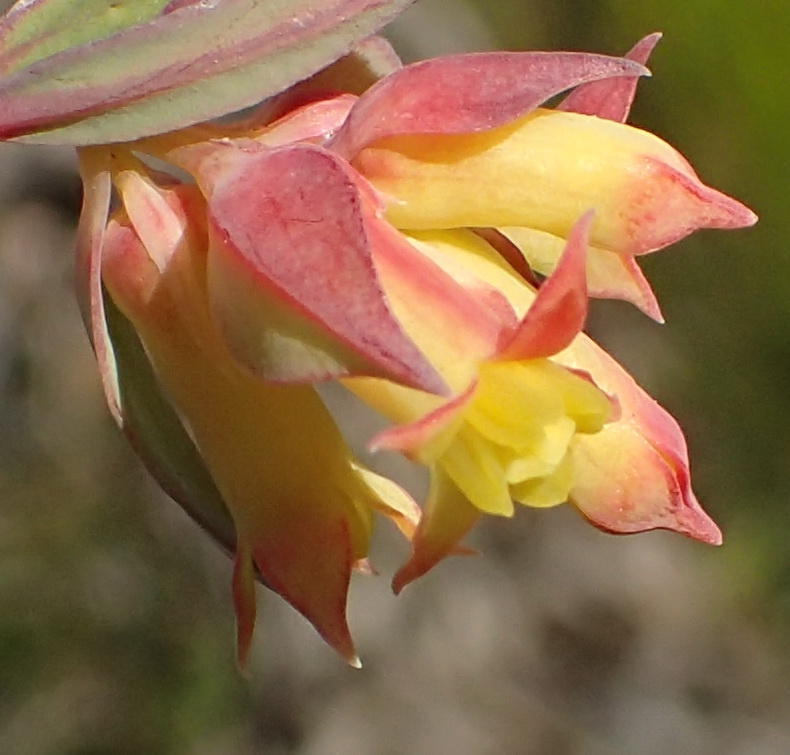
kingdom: Plantae
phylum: Tracheophyta
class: Magnoliopsida
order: Myrtales
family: Penaeaceae
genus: Penaea
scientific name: Penaea acutifolia
